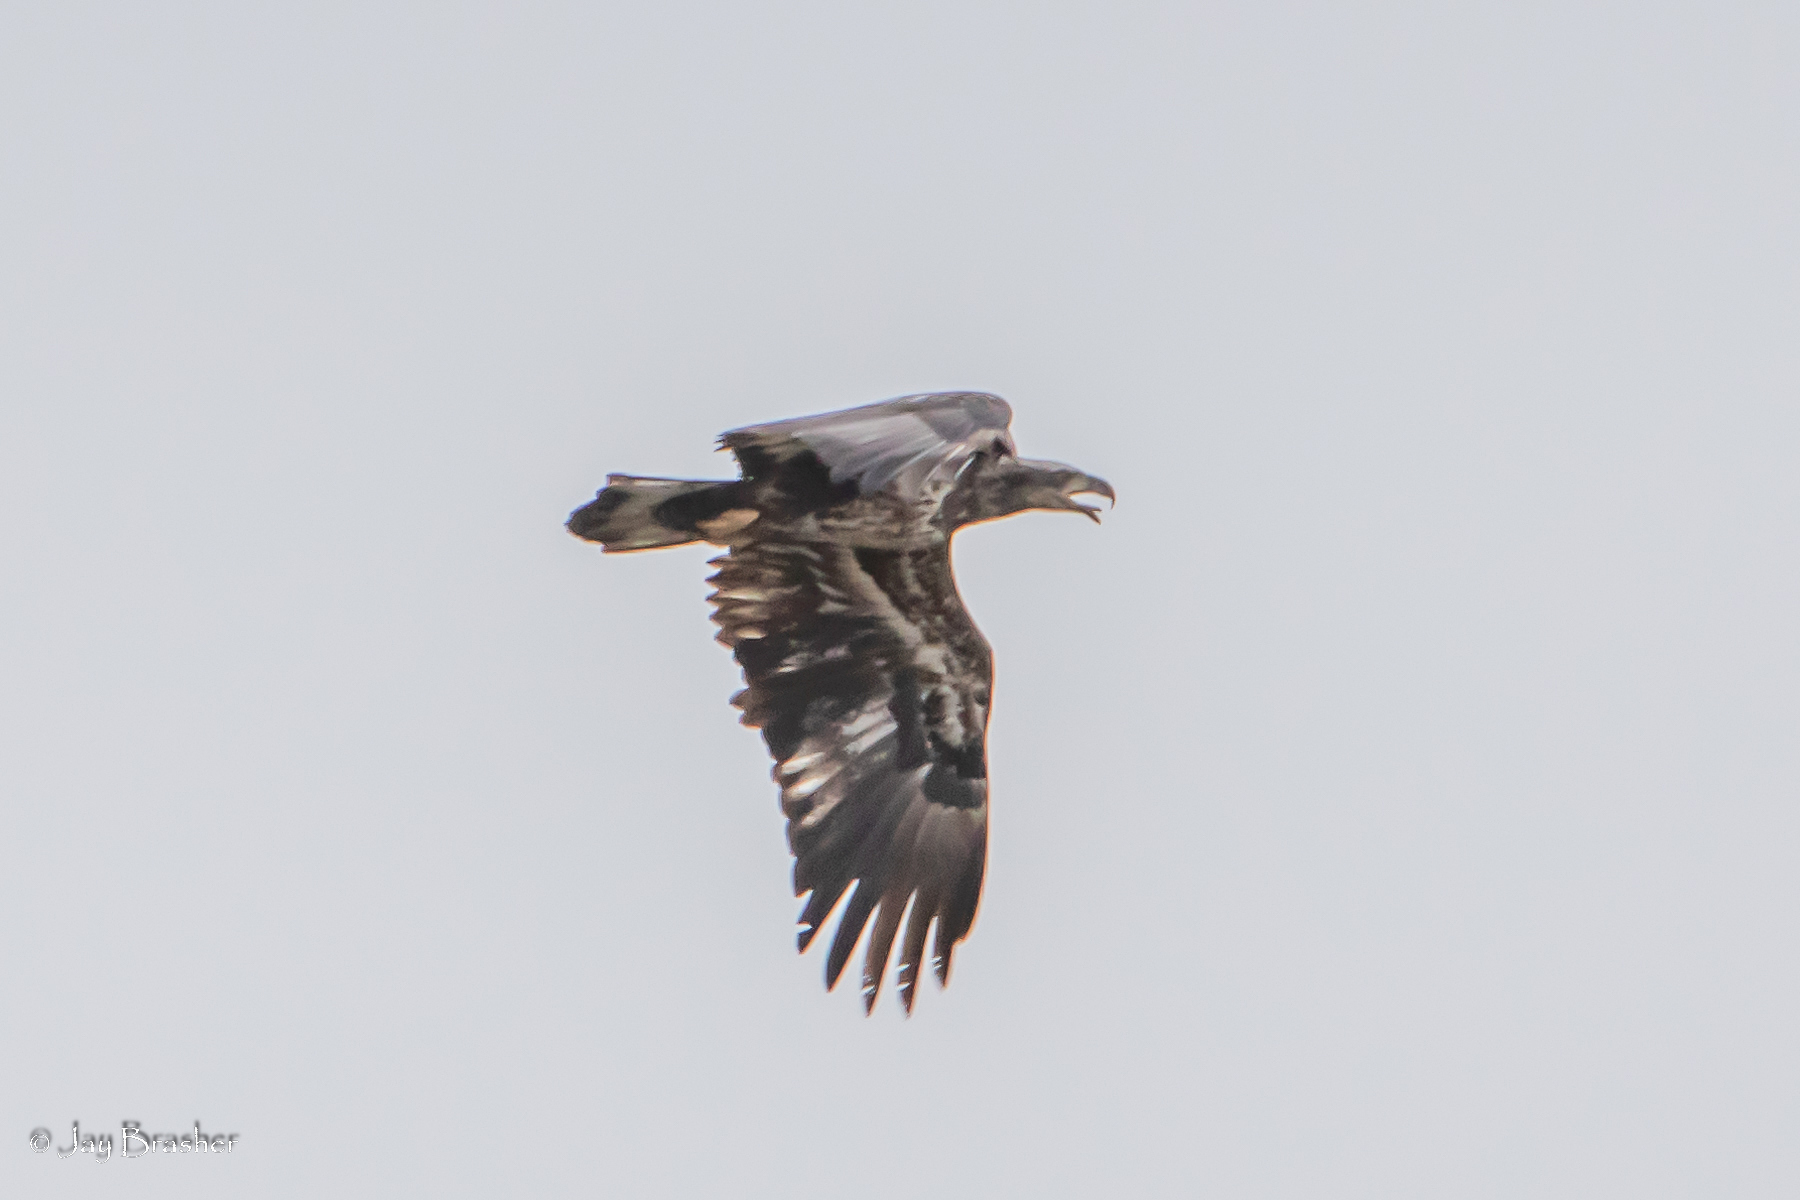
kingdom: Animalia
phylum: Chordata
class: Aves
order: Accipitriformes
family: Accipitridae
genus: Haliaeetus
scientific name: Haliaeetus leucocephalus
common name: Bald eagle
